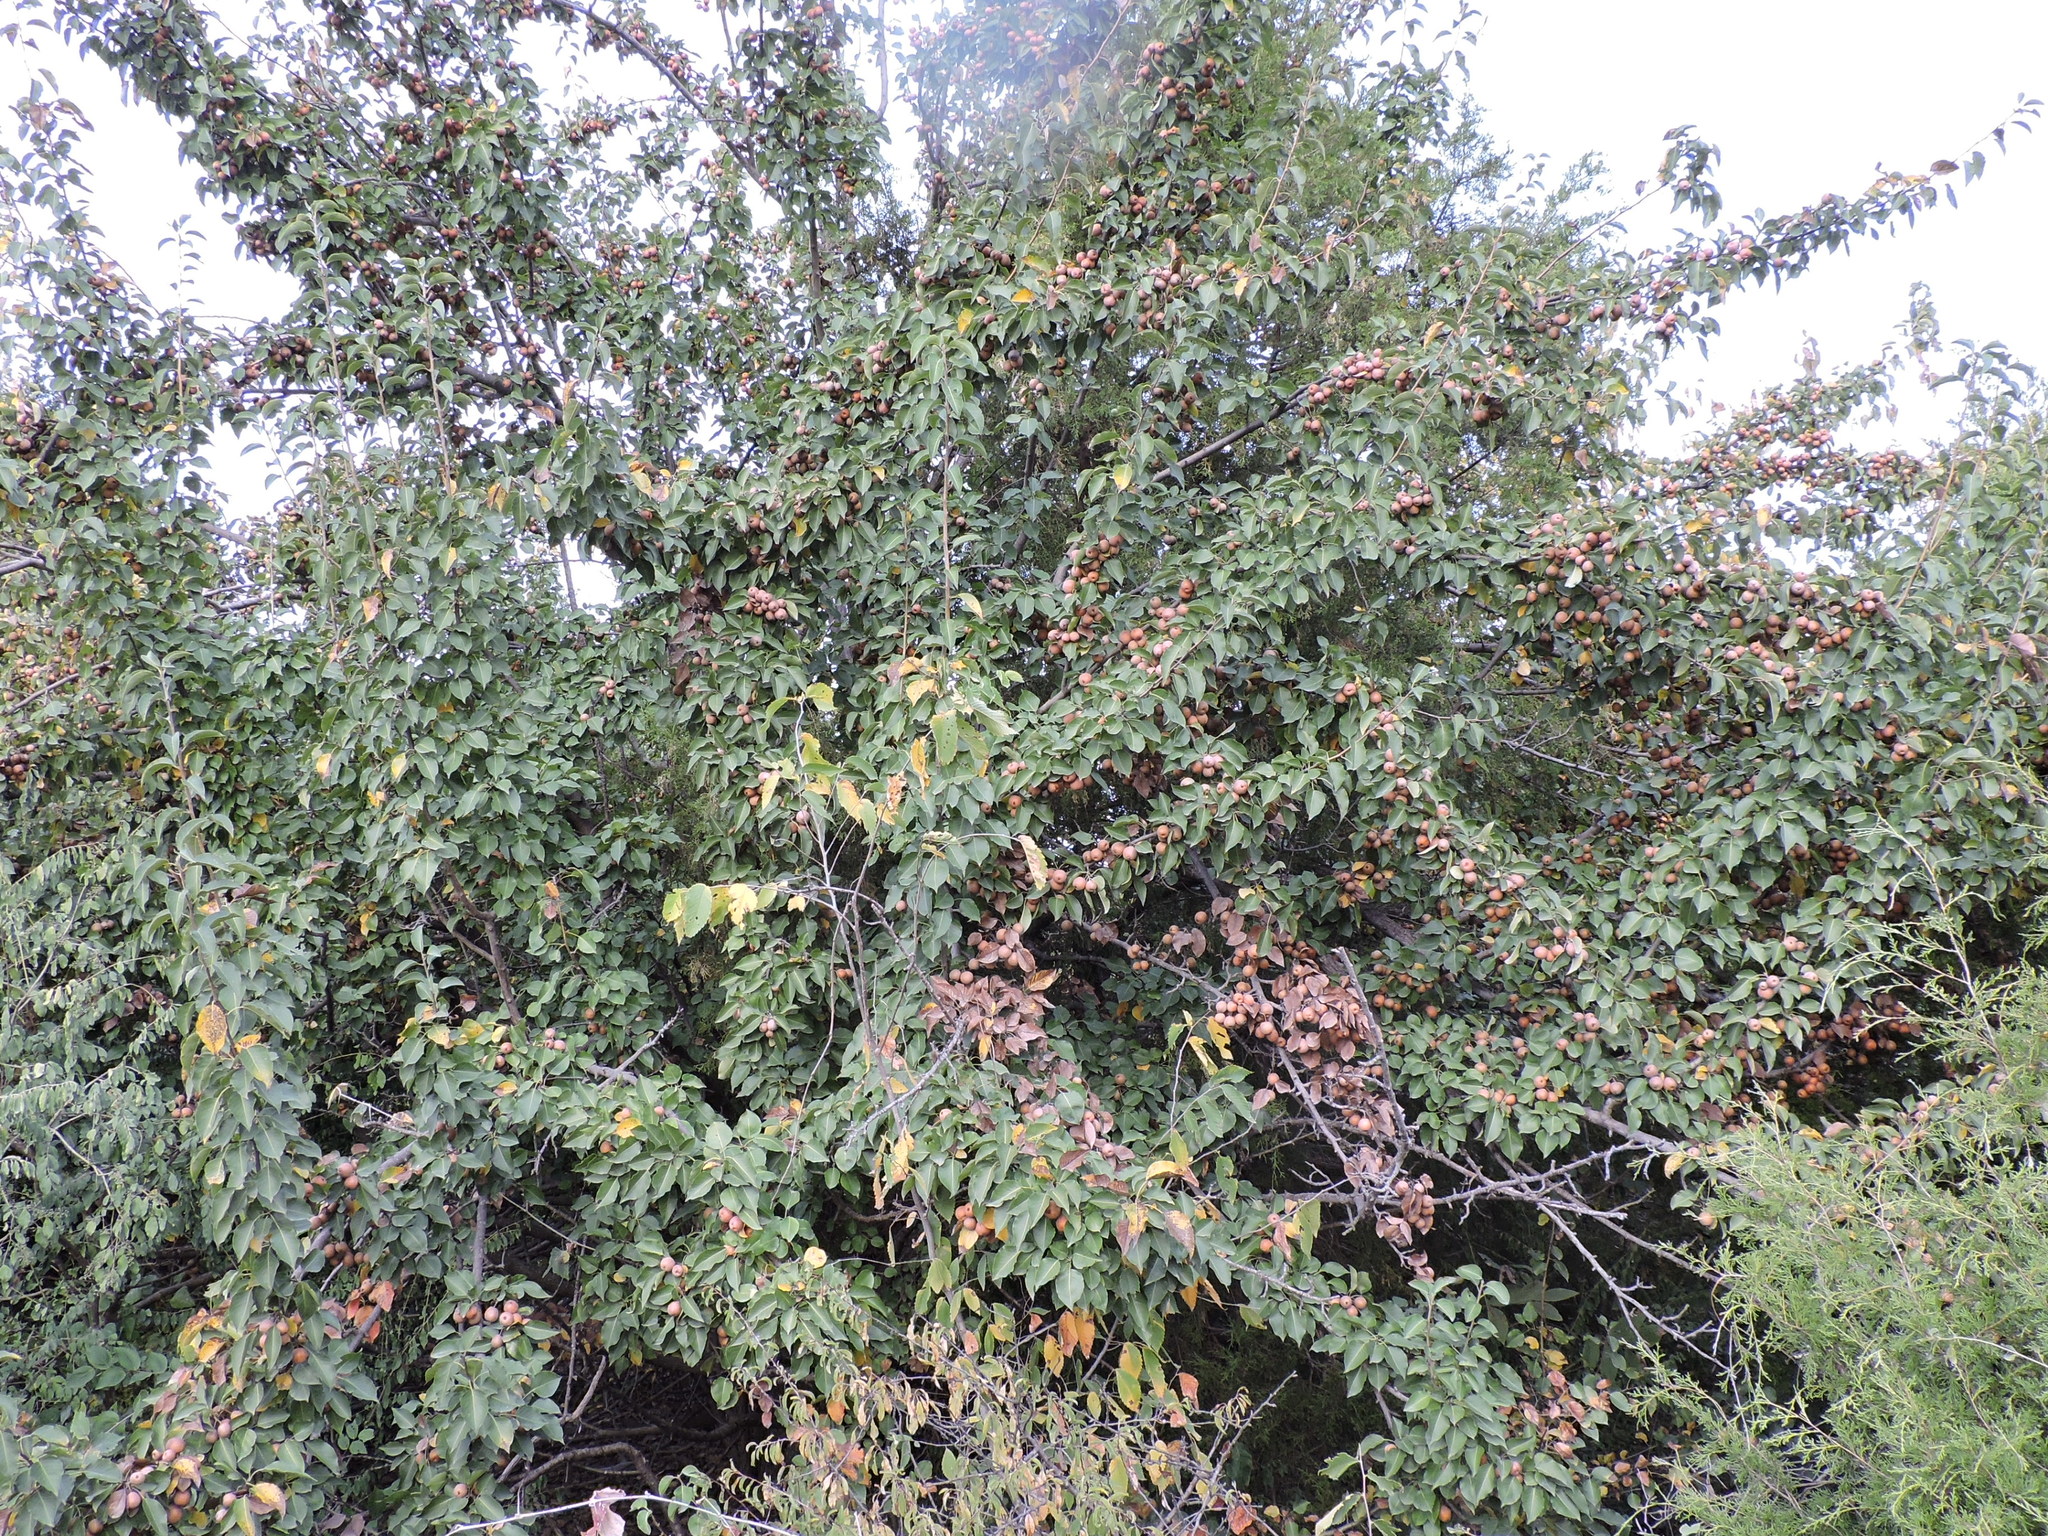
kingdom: Plantae
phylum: Tracheophyta
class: Magnoliopsida
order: Rosales
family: Rosaceae
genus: Pyrus
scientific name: Pyrus calleryana
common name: Callery pear
